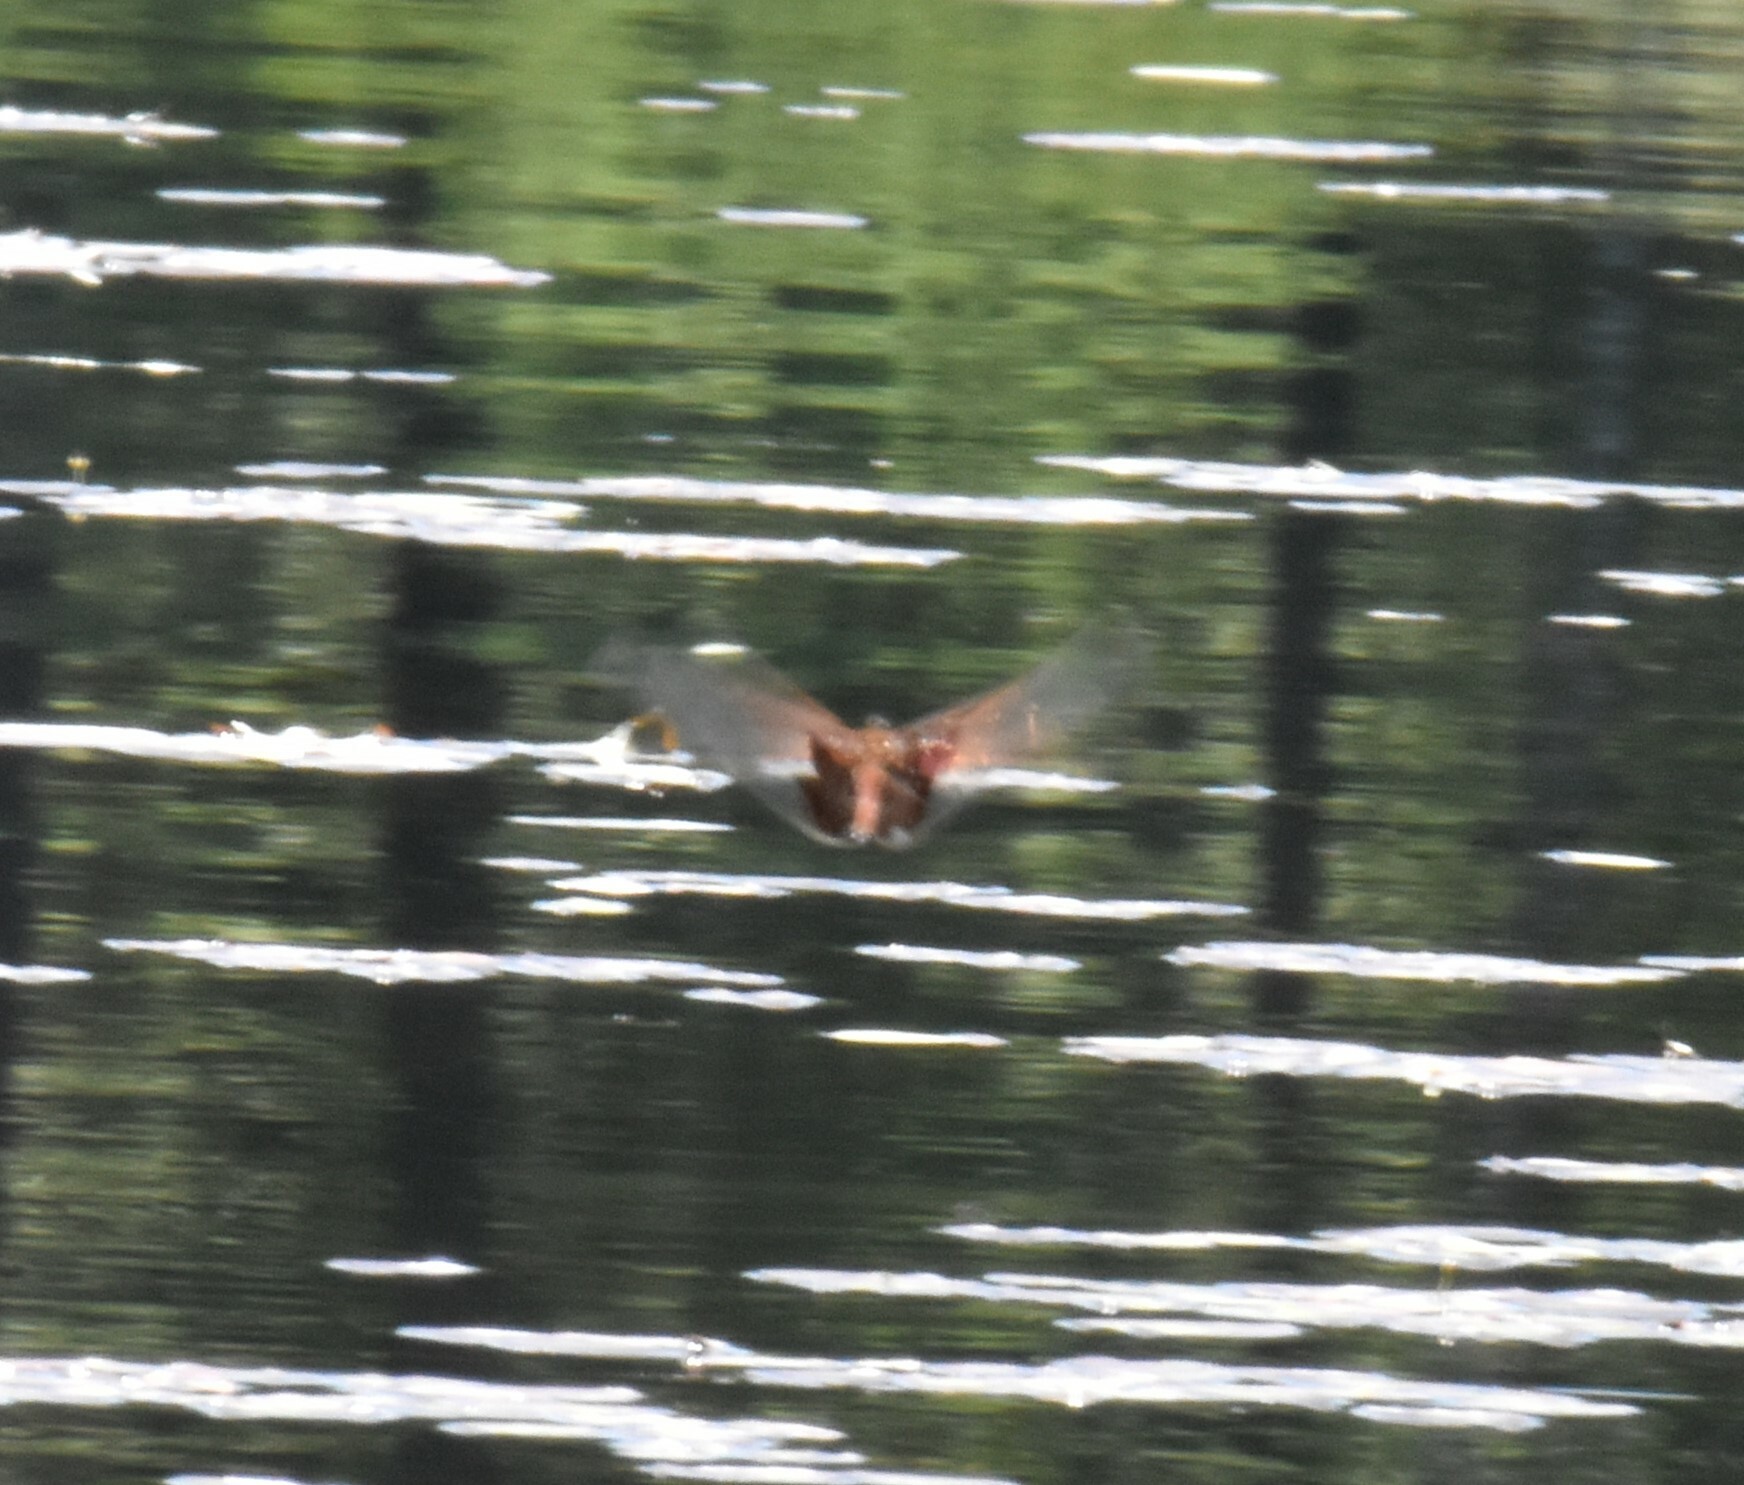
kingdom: Animalia
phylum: Arthropoda
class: Insecta
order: Odonata
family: Libellulidae
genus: Tramea
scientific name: Tramea carolina
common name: Carolina saddlebags
